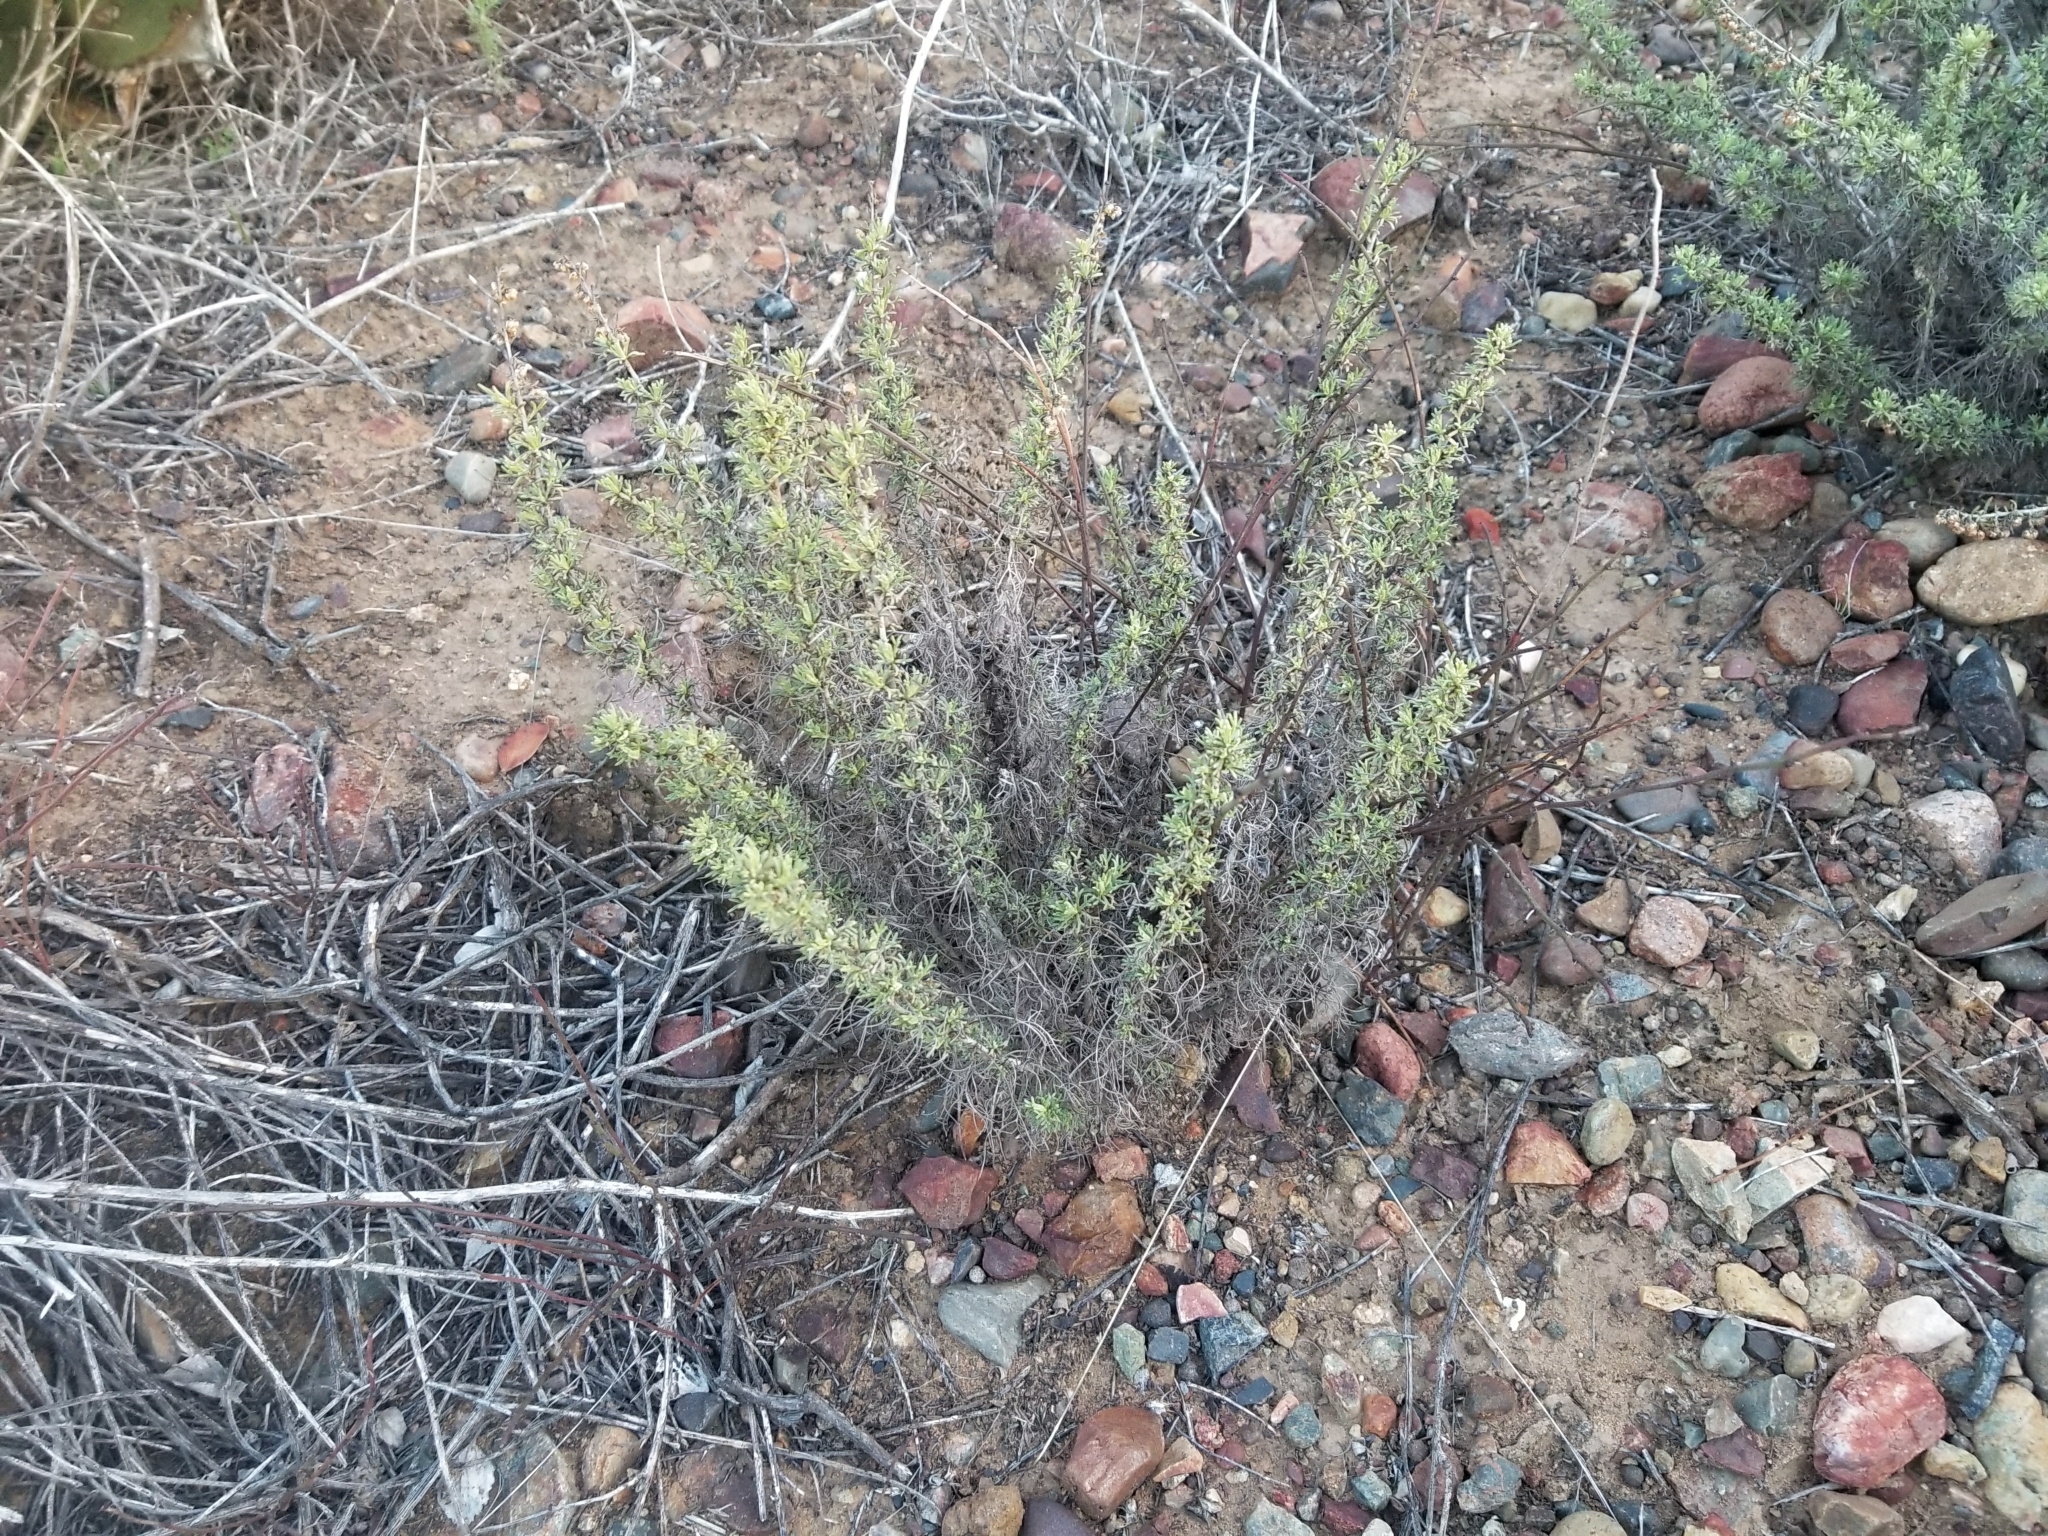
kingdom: Plantae
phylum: Tracheophyta
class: Magnoliopsida
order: Asterales
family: Asteraceae
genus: Artemisia
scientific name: Artemisia californica
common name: California sagebrush
